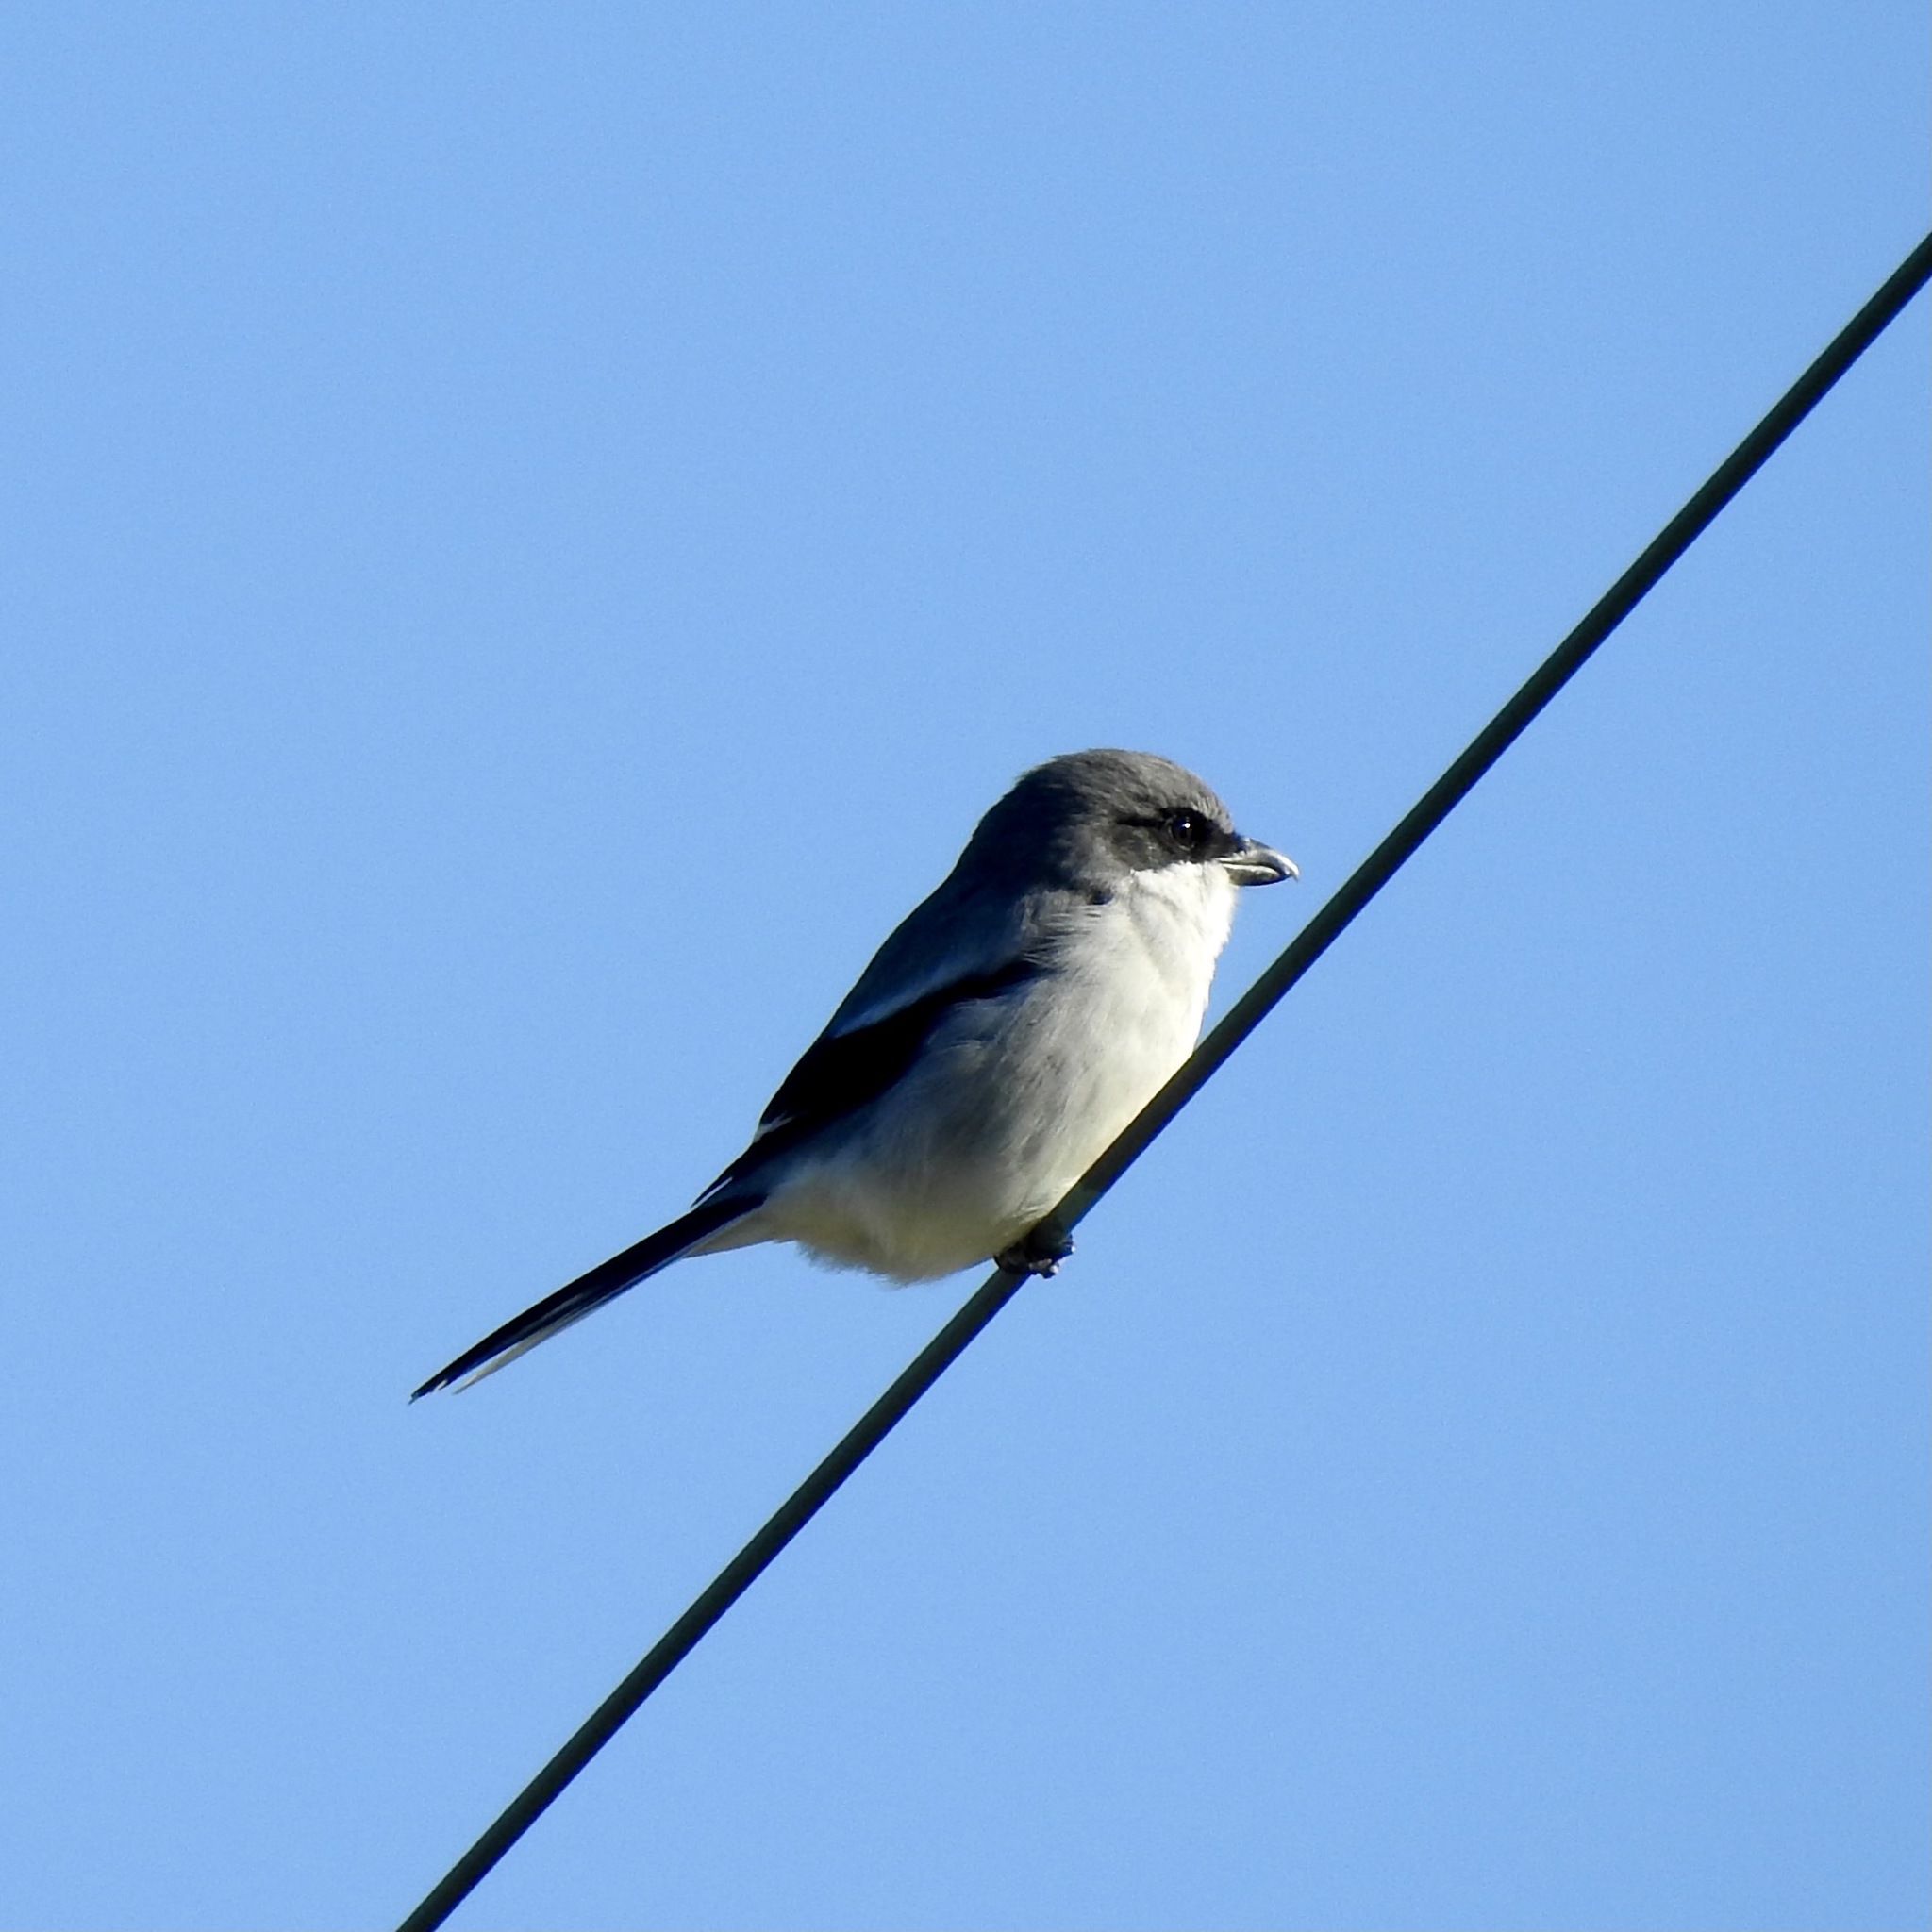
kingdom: Animalia
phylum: Chordata
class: Aves
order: Passeriformes
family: Laniidae
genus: Lanius
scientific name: Lanius ludovicianus
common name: Loggerhead shrike
